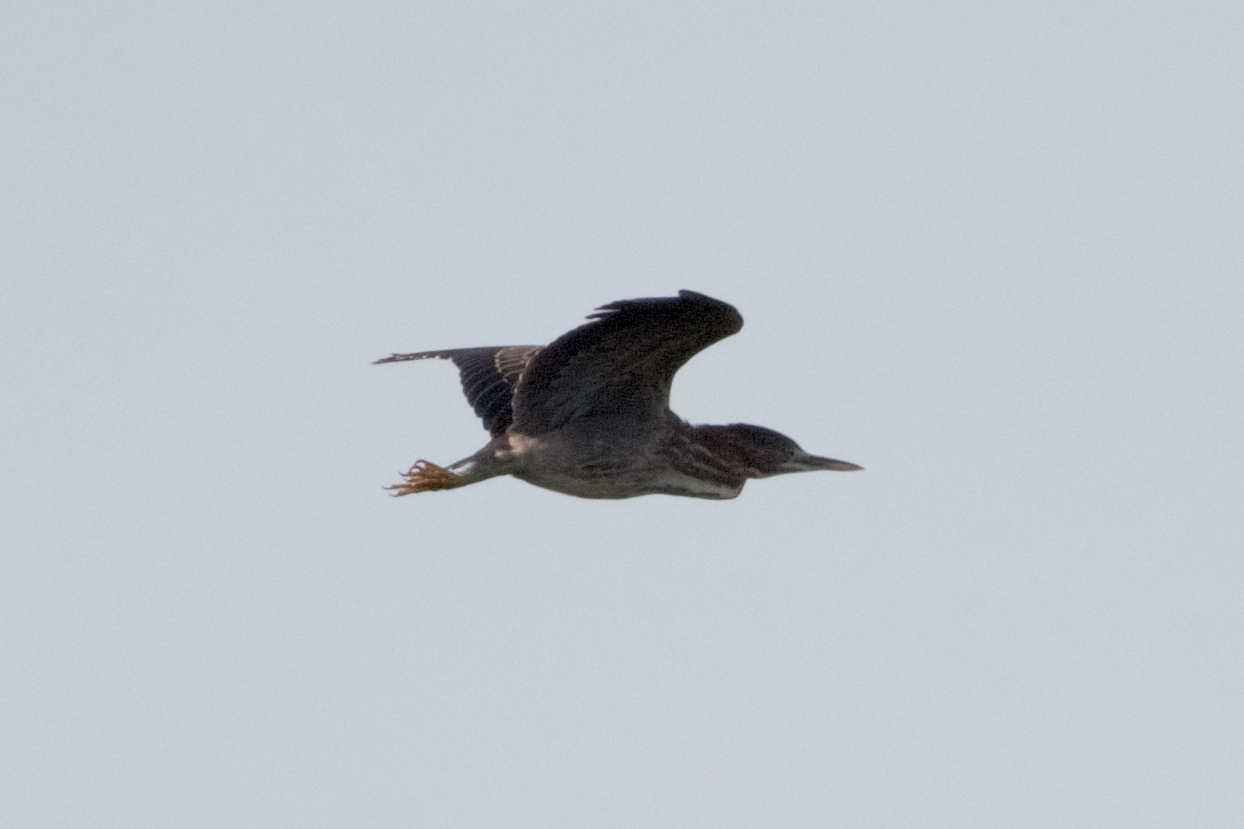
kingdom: Animalia
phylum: Chordata
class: Aves
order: Pelecaniformes
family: Ardeidae
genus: Butorides
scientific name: Butorides virescens
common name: Green heron
